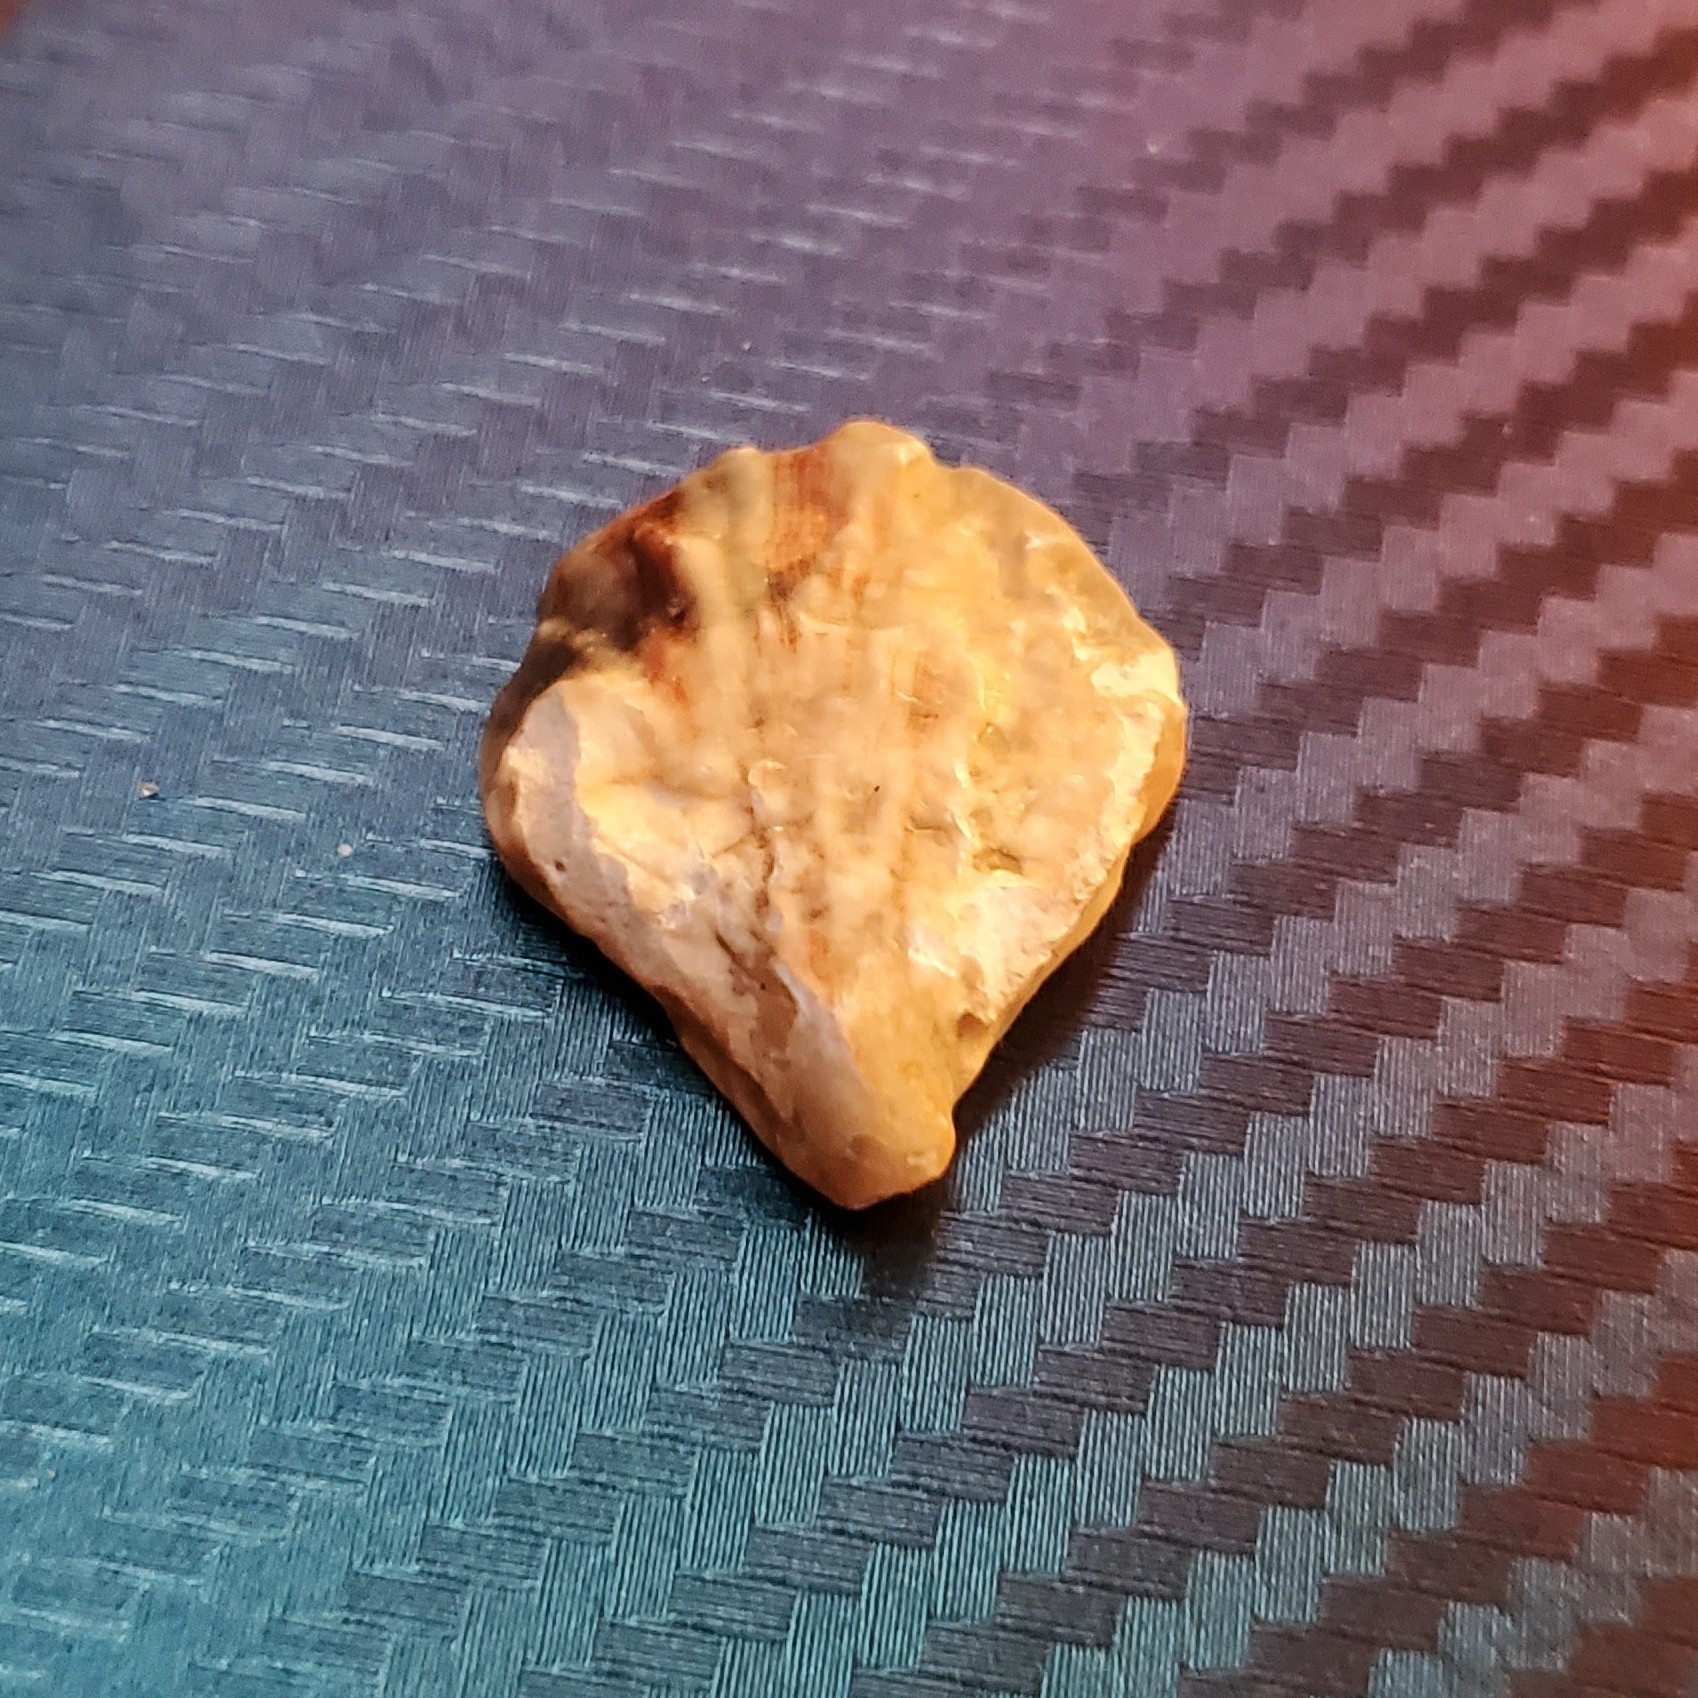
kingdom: Animalia
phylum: Mollusca
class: Bivalvia
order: Ostreida
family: Ostreidae
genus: Crassostrea
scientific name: Crassostrea virginica
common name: American oyster
